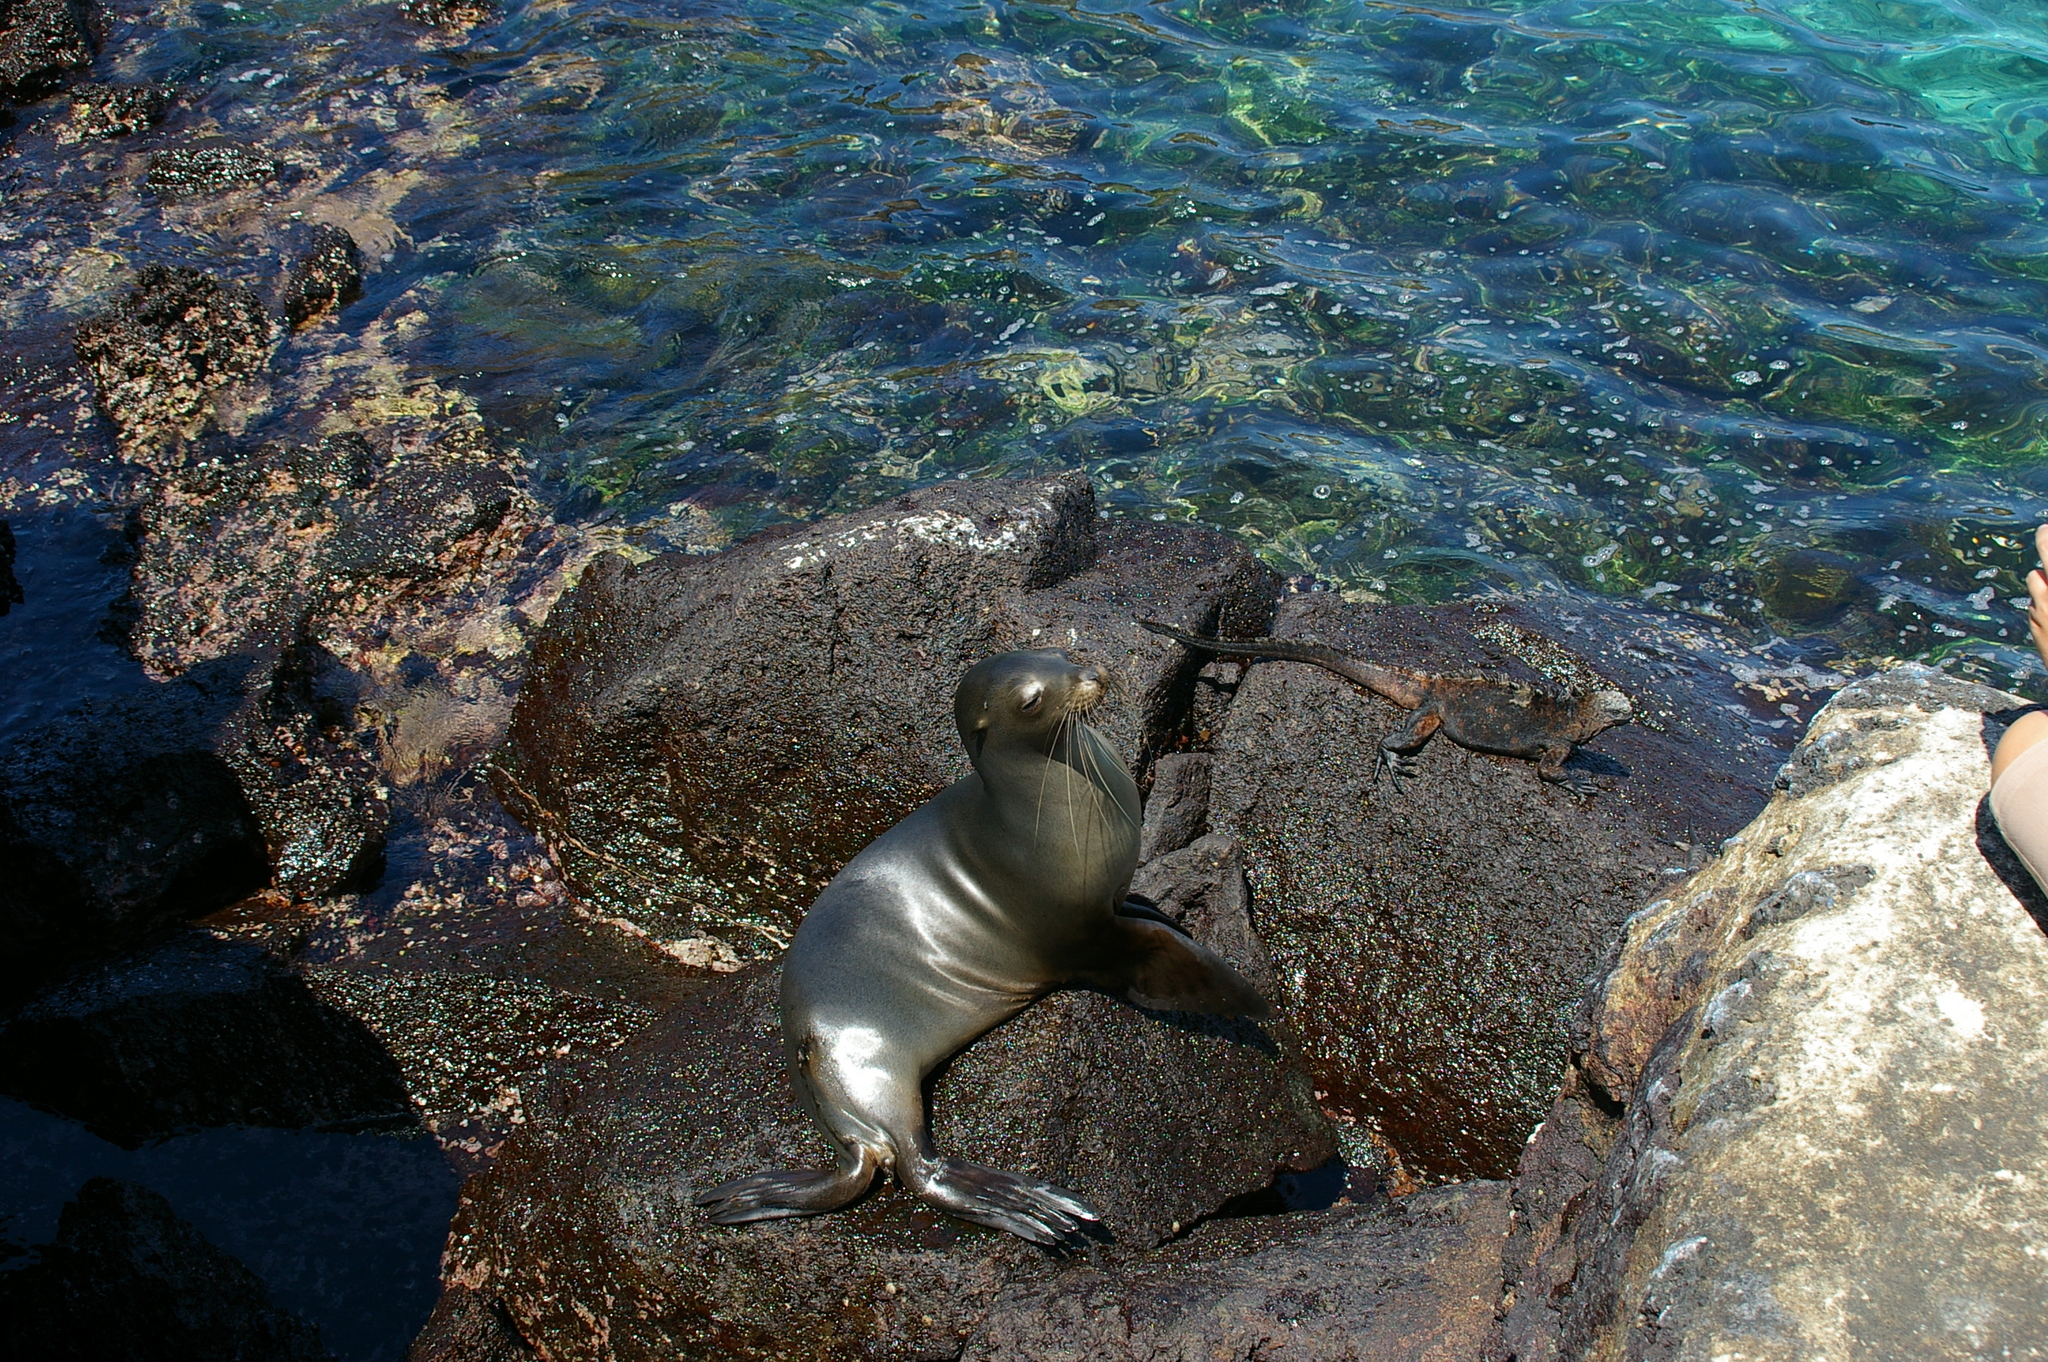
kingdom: Animalia
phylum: Chordata
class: Mammalia
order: Carnivora
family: Otariidae
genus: Zalophus
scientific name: Zalophus wollebaeki
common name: Galapagos sea lion
